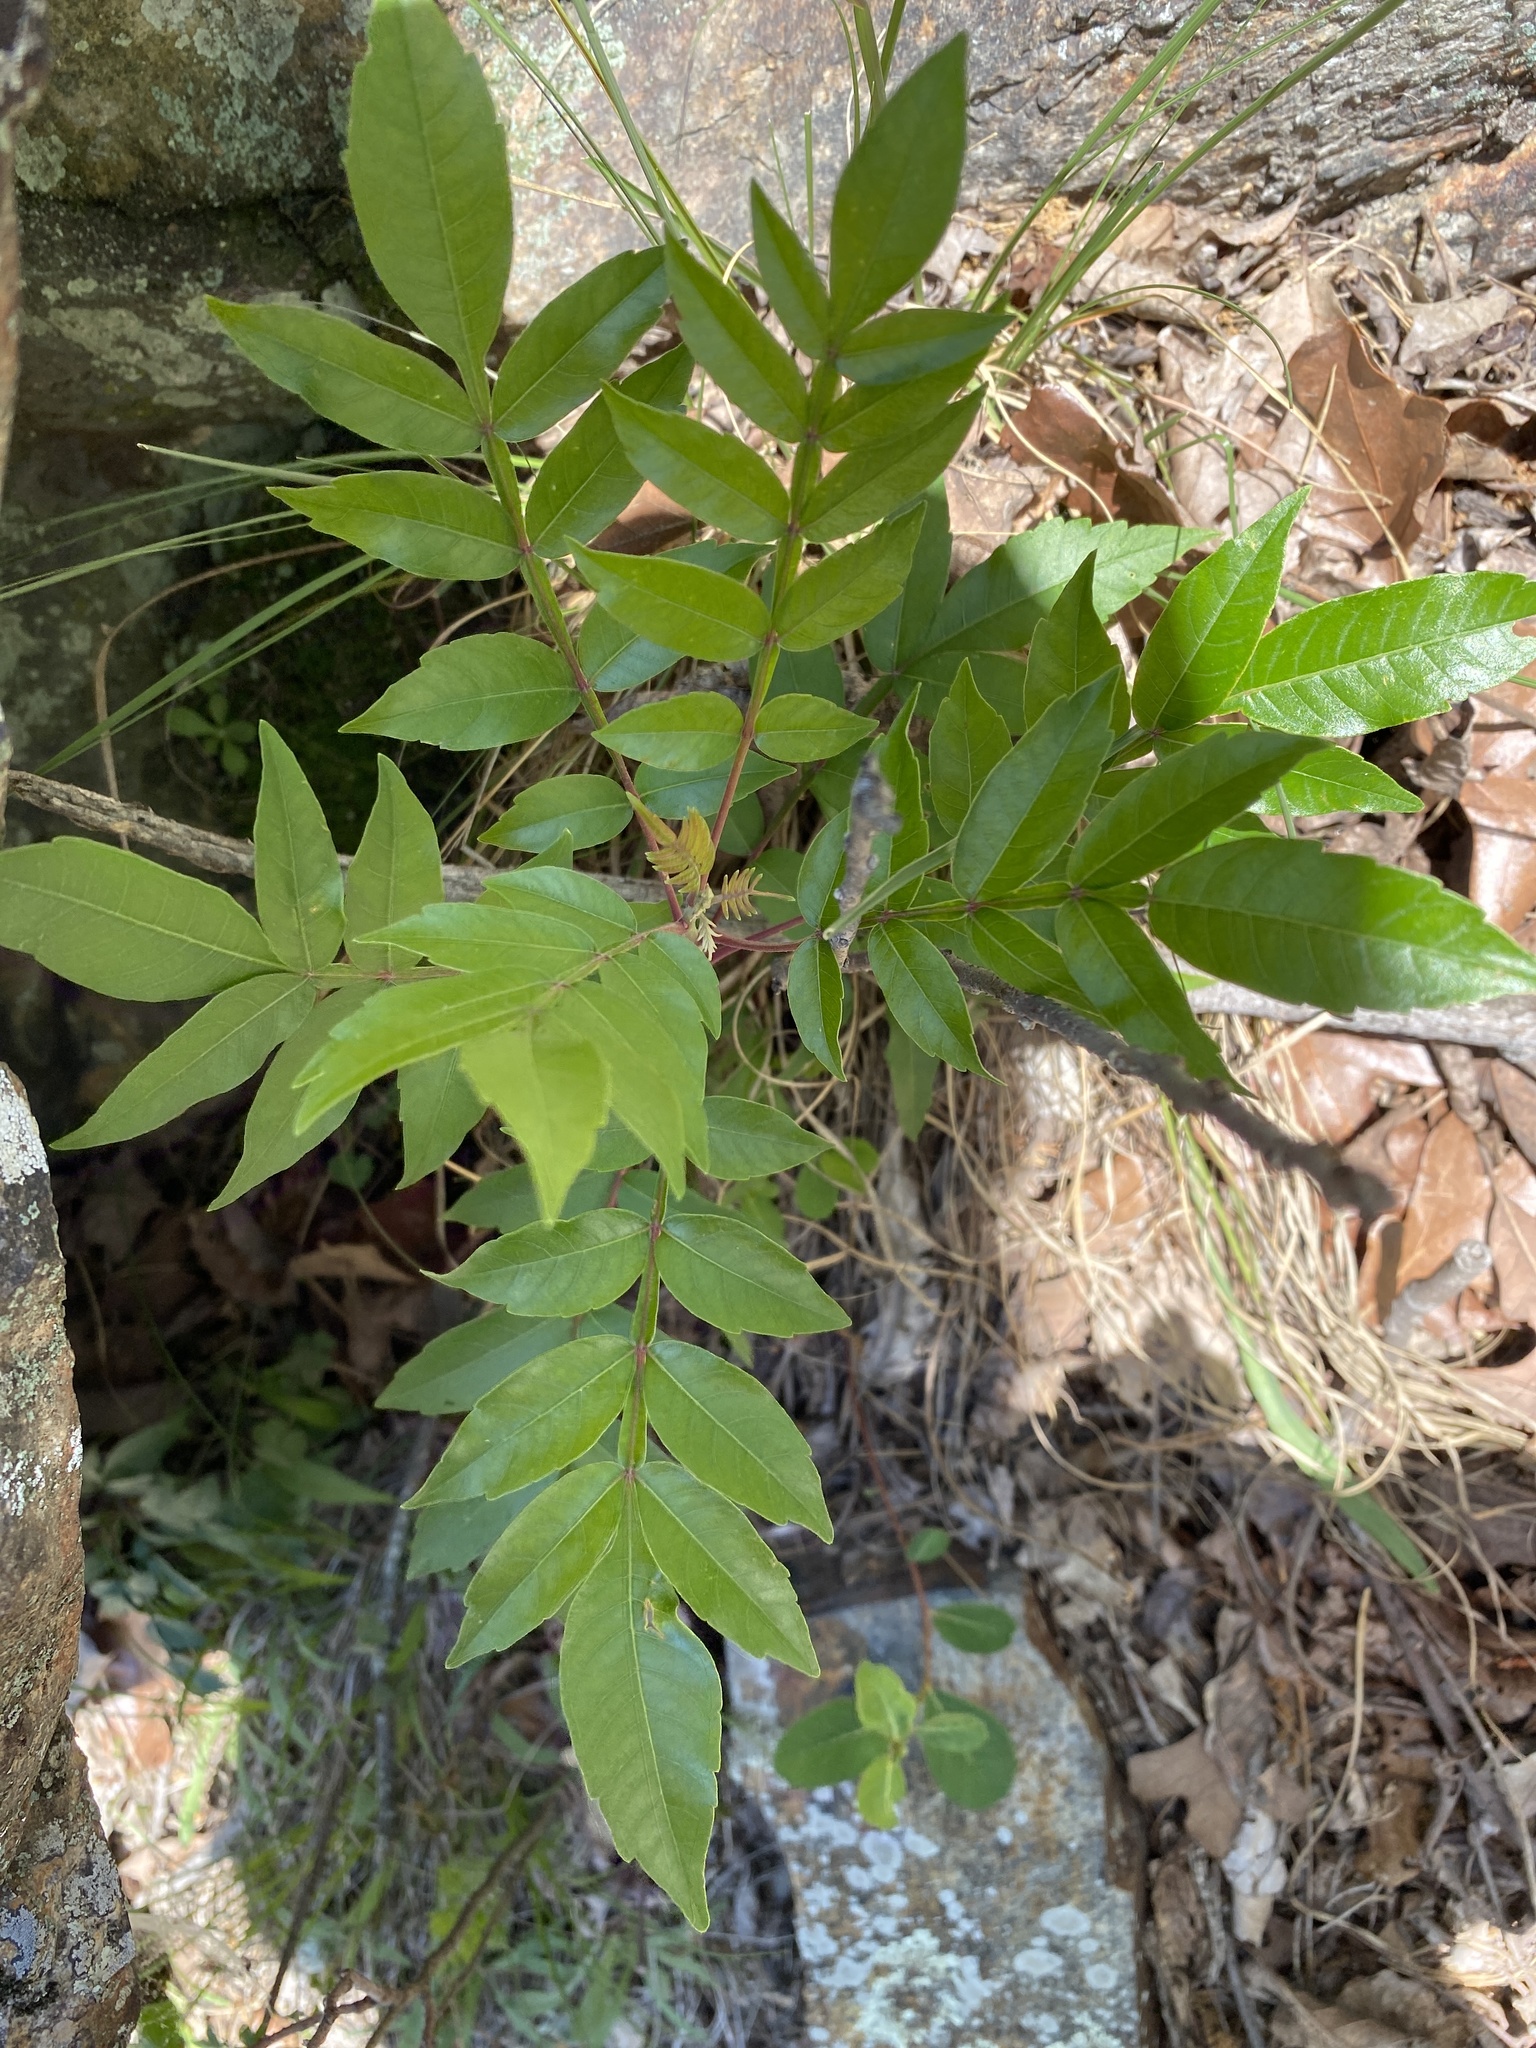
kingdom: Plantae
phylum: Tracheophyta
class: Magnoliopsida
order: Sapindales
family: Anacardiaceae
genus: Rhus
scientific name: Rhus copallina
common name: Shining sumac
